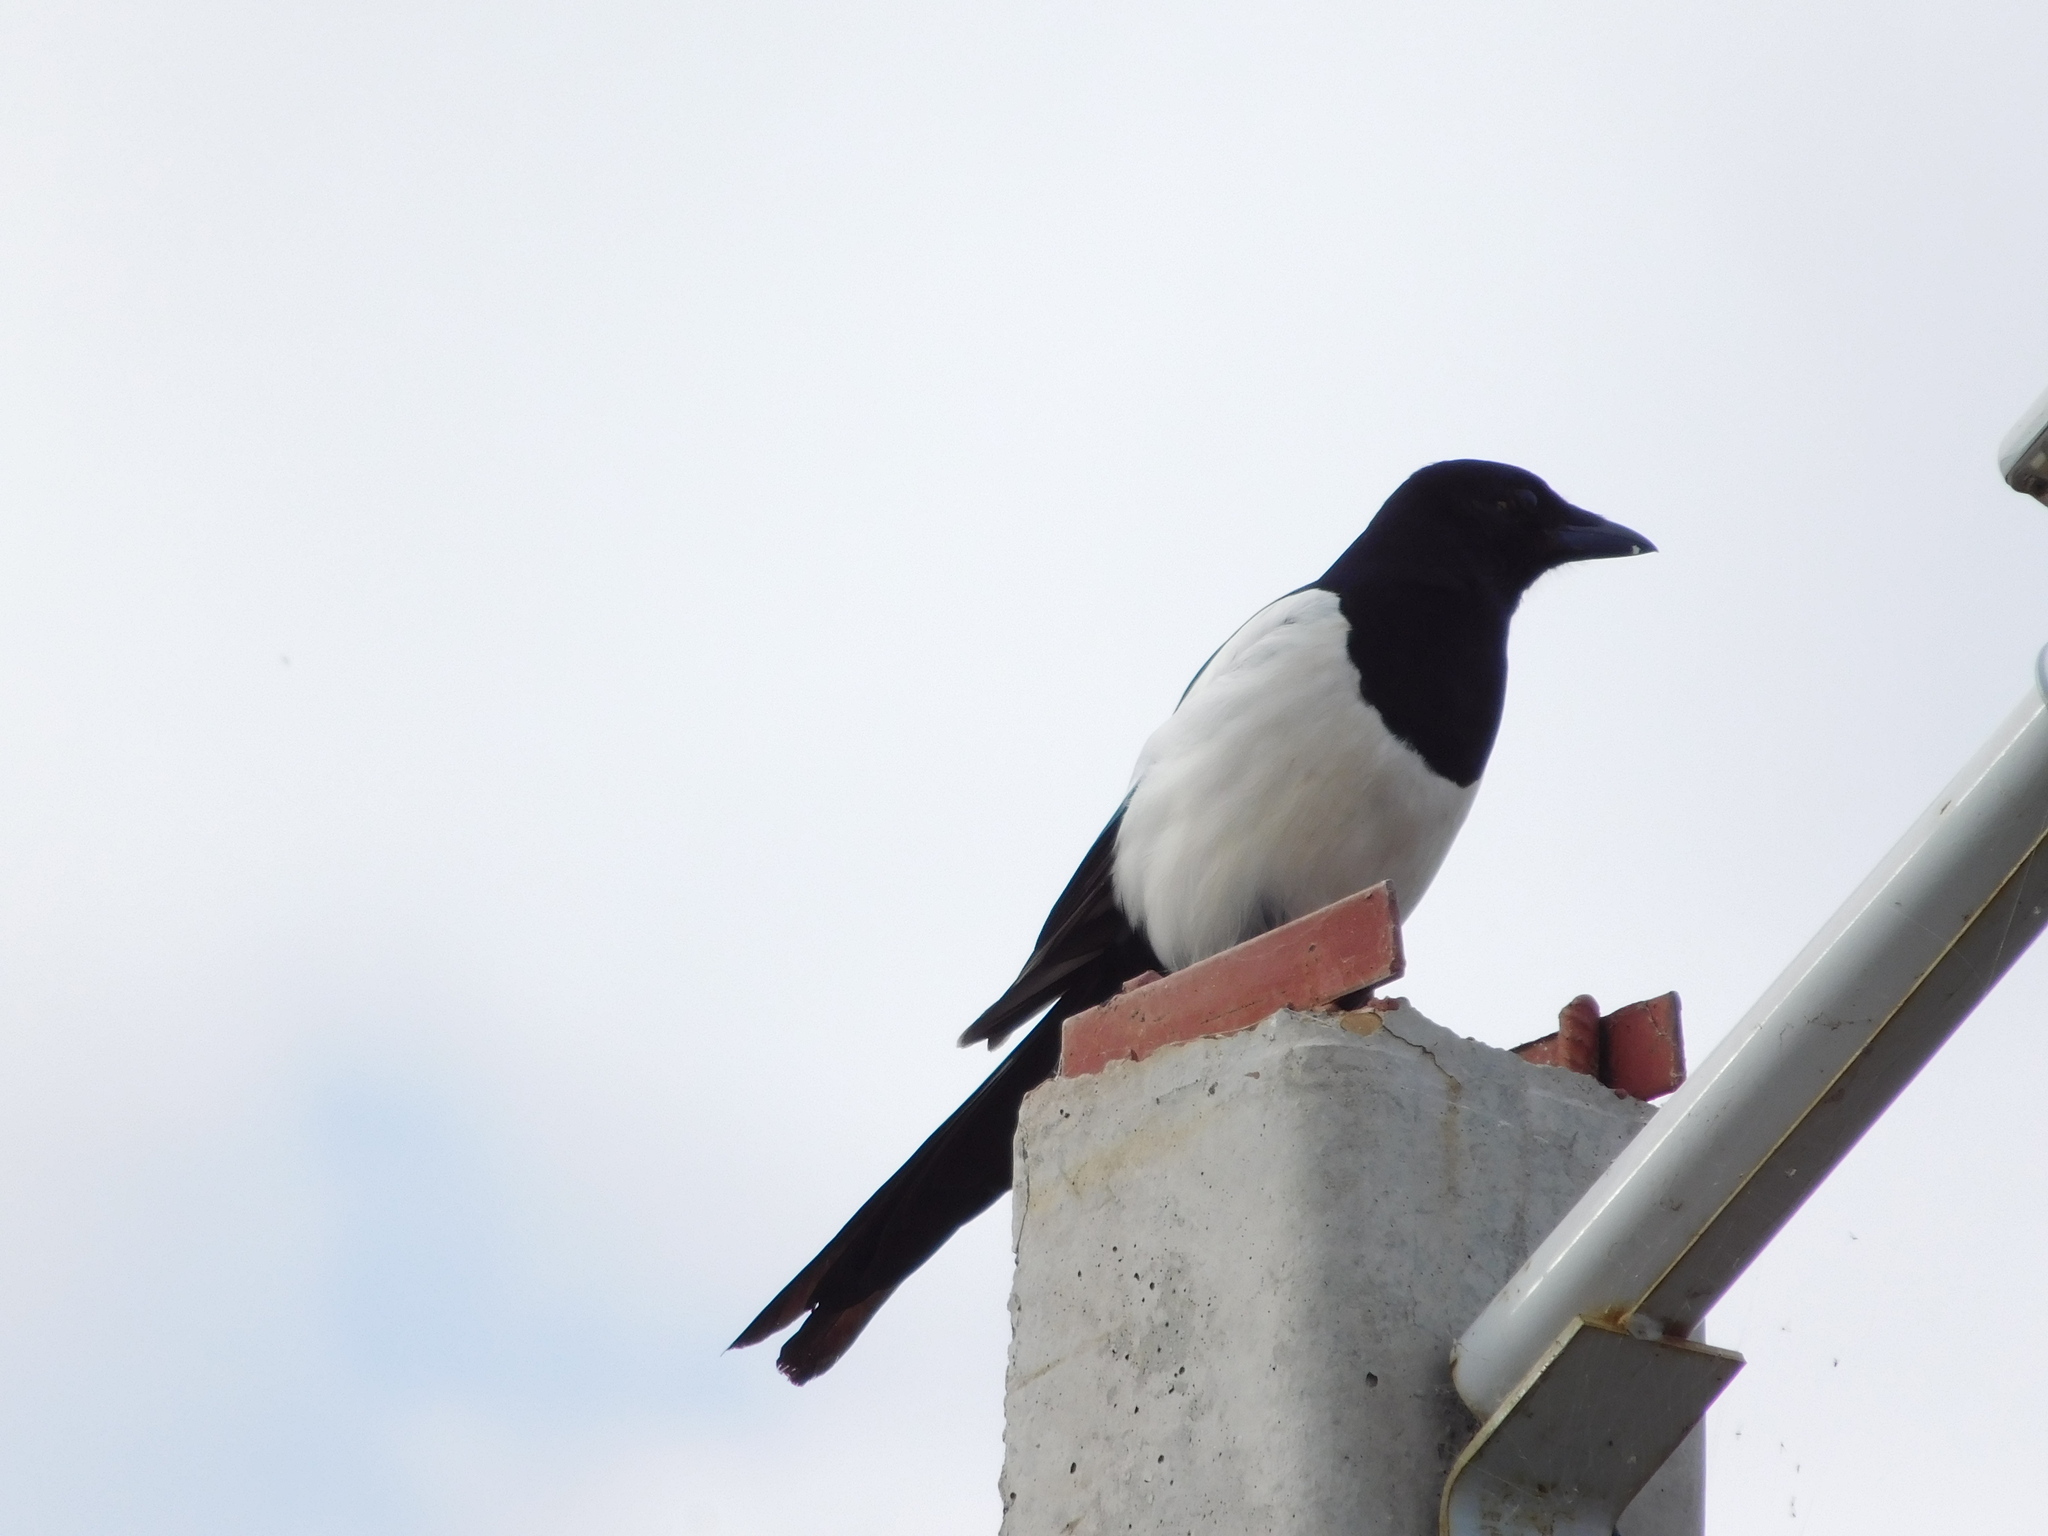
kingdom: Animalia
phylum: Chordata
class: Aves
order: Passeriformes
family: Corvidae
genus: Pica
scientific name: Pica pica
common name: Eurasian magpie
